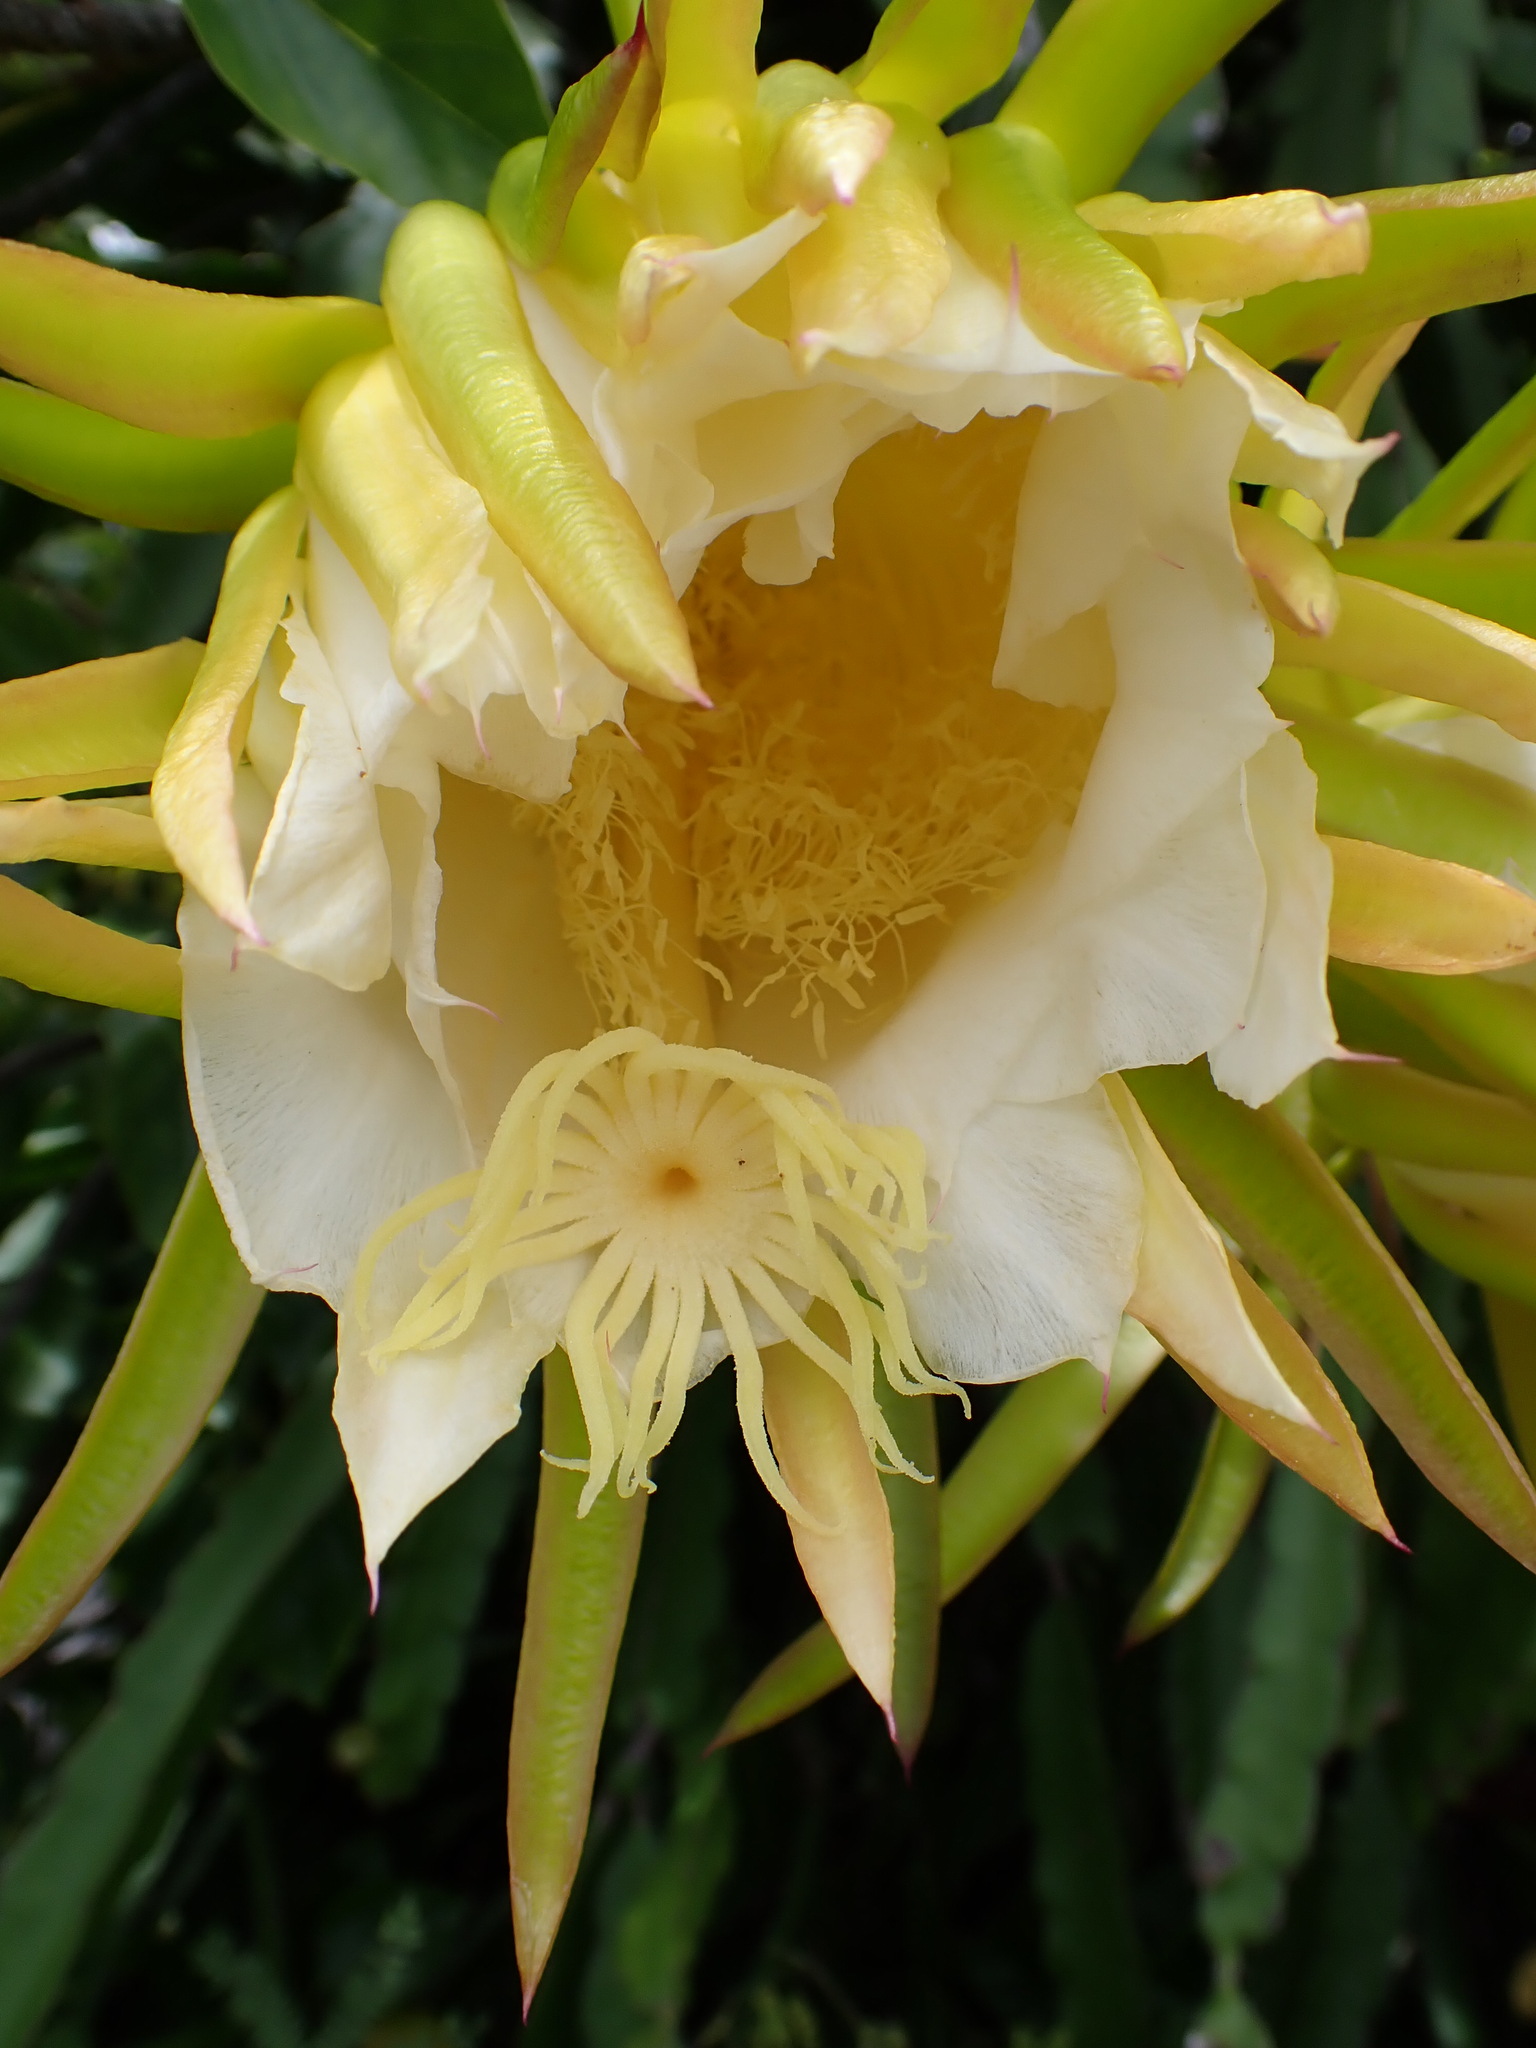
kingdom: Plantae
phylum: Tracheophyta
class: Magnoliopsida
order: Caryophyllales
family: Cactaceae
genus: Selenicereus
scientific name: Selenicereus undatus
